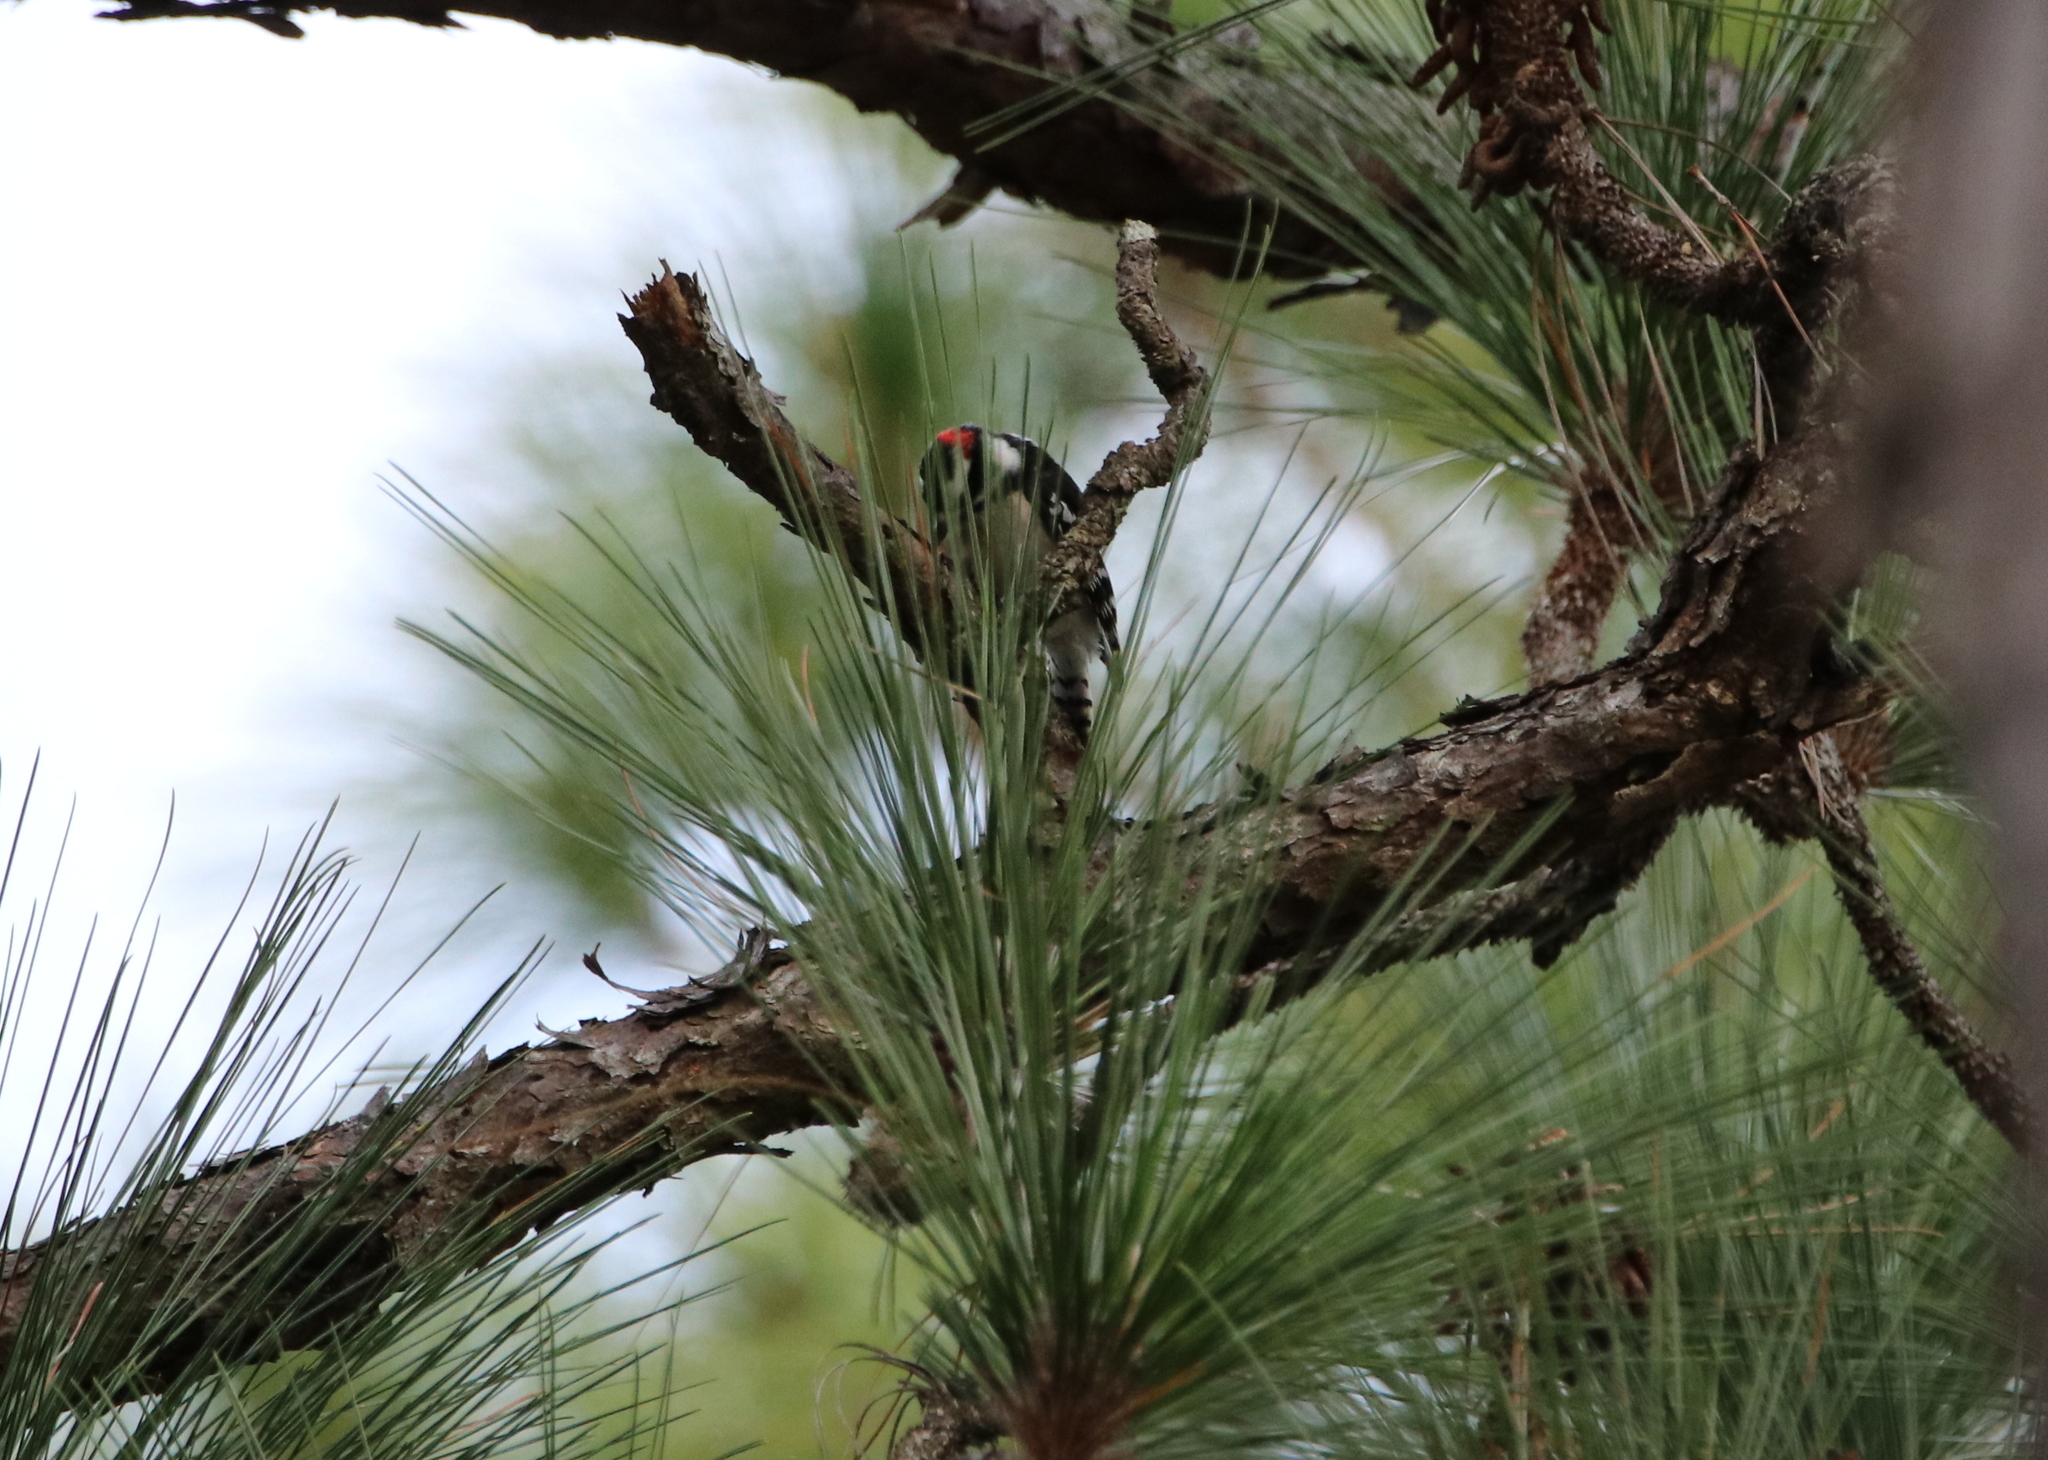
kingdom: Animalia
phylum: Chordata
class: Aves
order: Piciformes
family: Picidae
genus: Dryobates
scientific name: Dryobates pubescens
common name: Downy woodpecker
